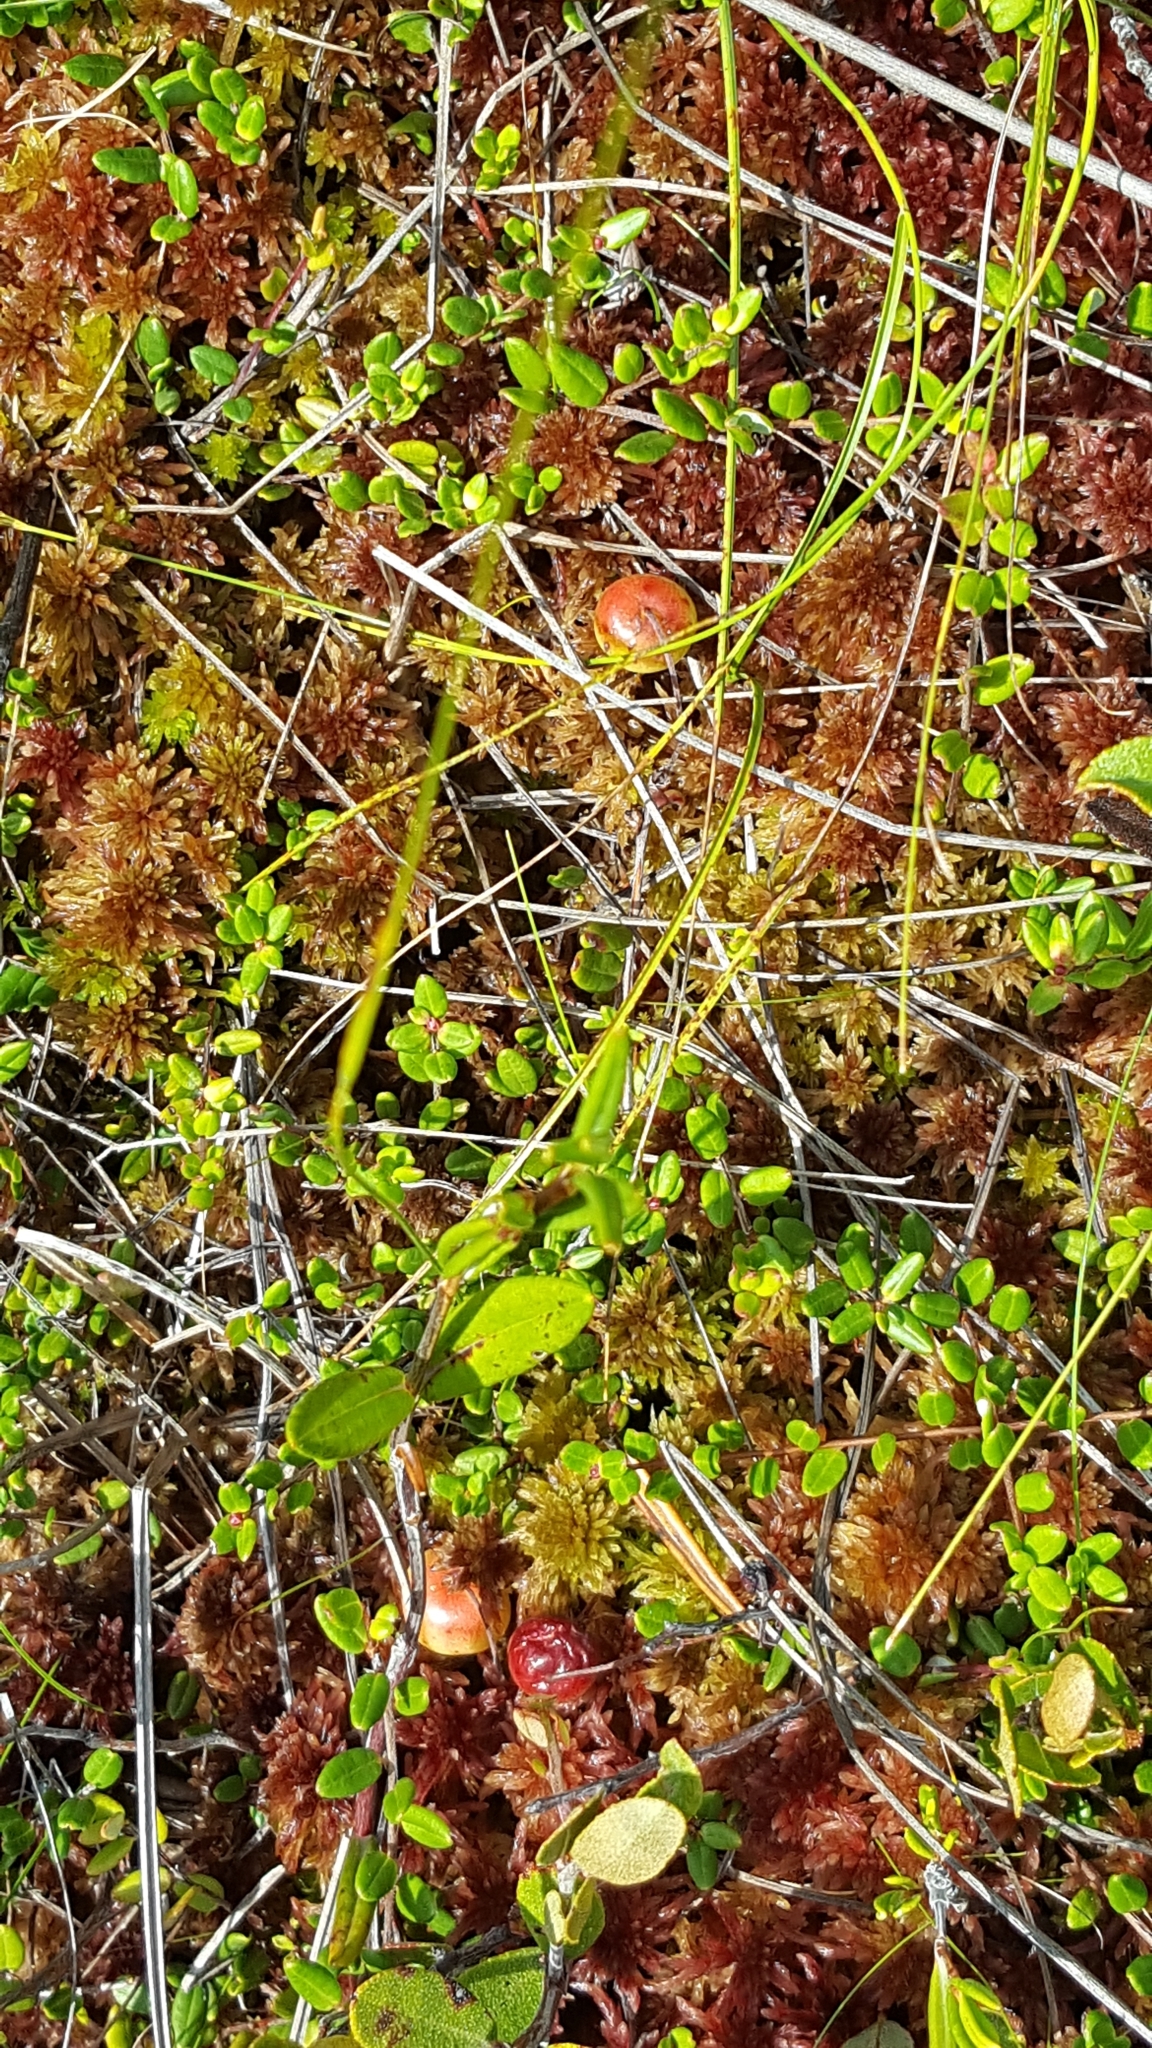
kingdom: Plantae
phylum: Tracheophyta
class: Magnoliopsida
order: Ericales
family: Ericaceae
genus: Vaccinium
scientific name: Vaccinium oxycoccos
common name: Cranberry
